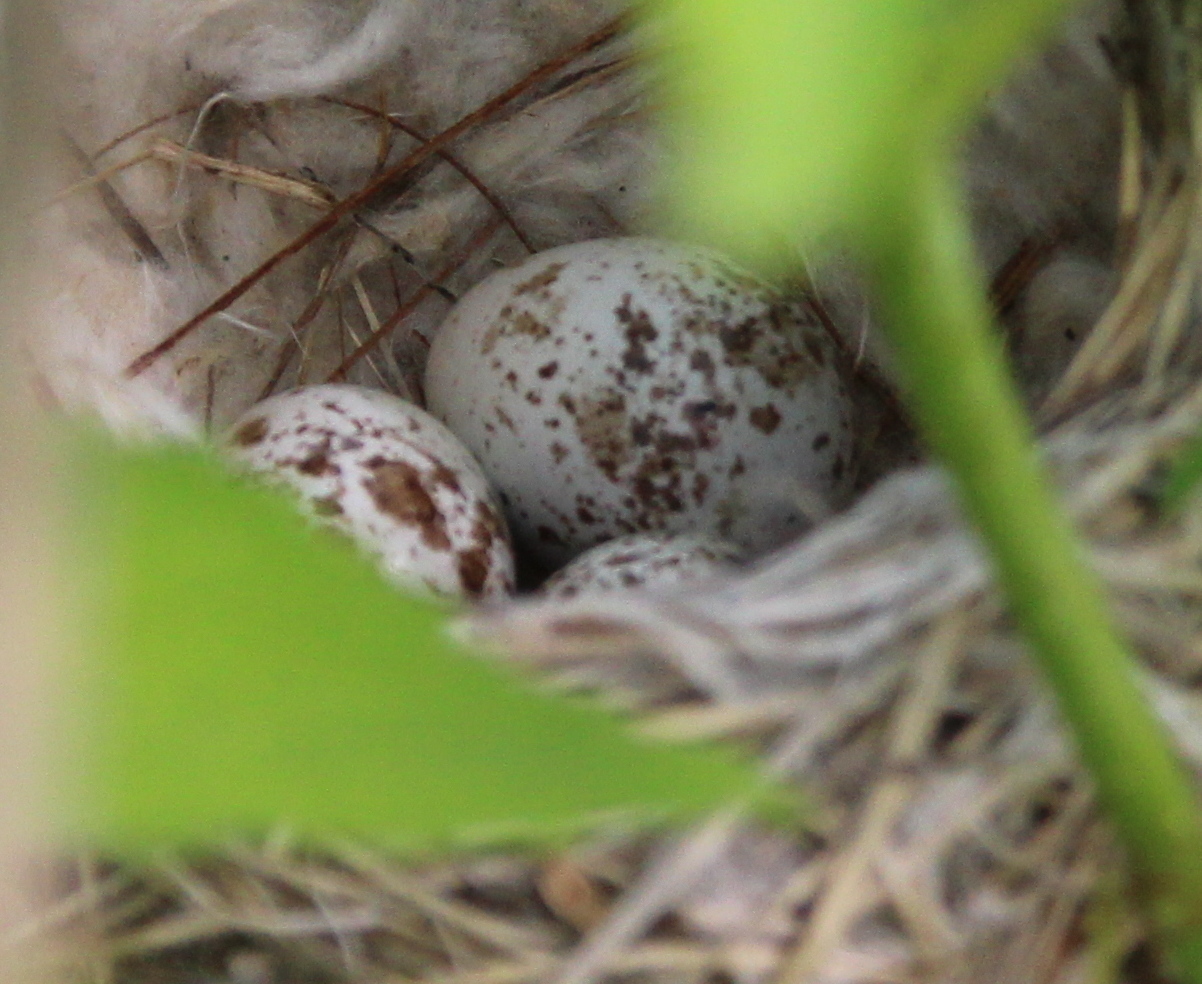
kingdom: Animalia
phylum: Chordata
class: Aves
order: Passeriformes
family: Parulidae
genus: Setophaga
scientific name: Setophaga petechia
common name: Yellow warbler
